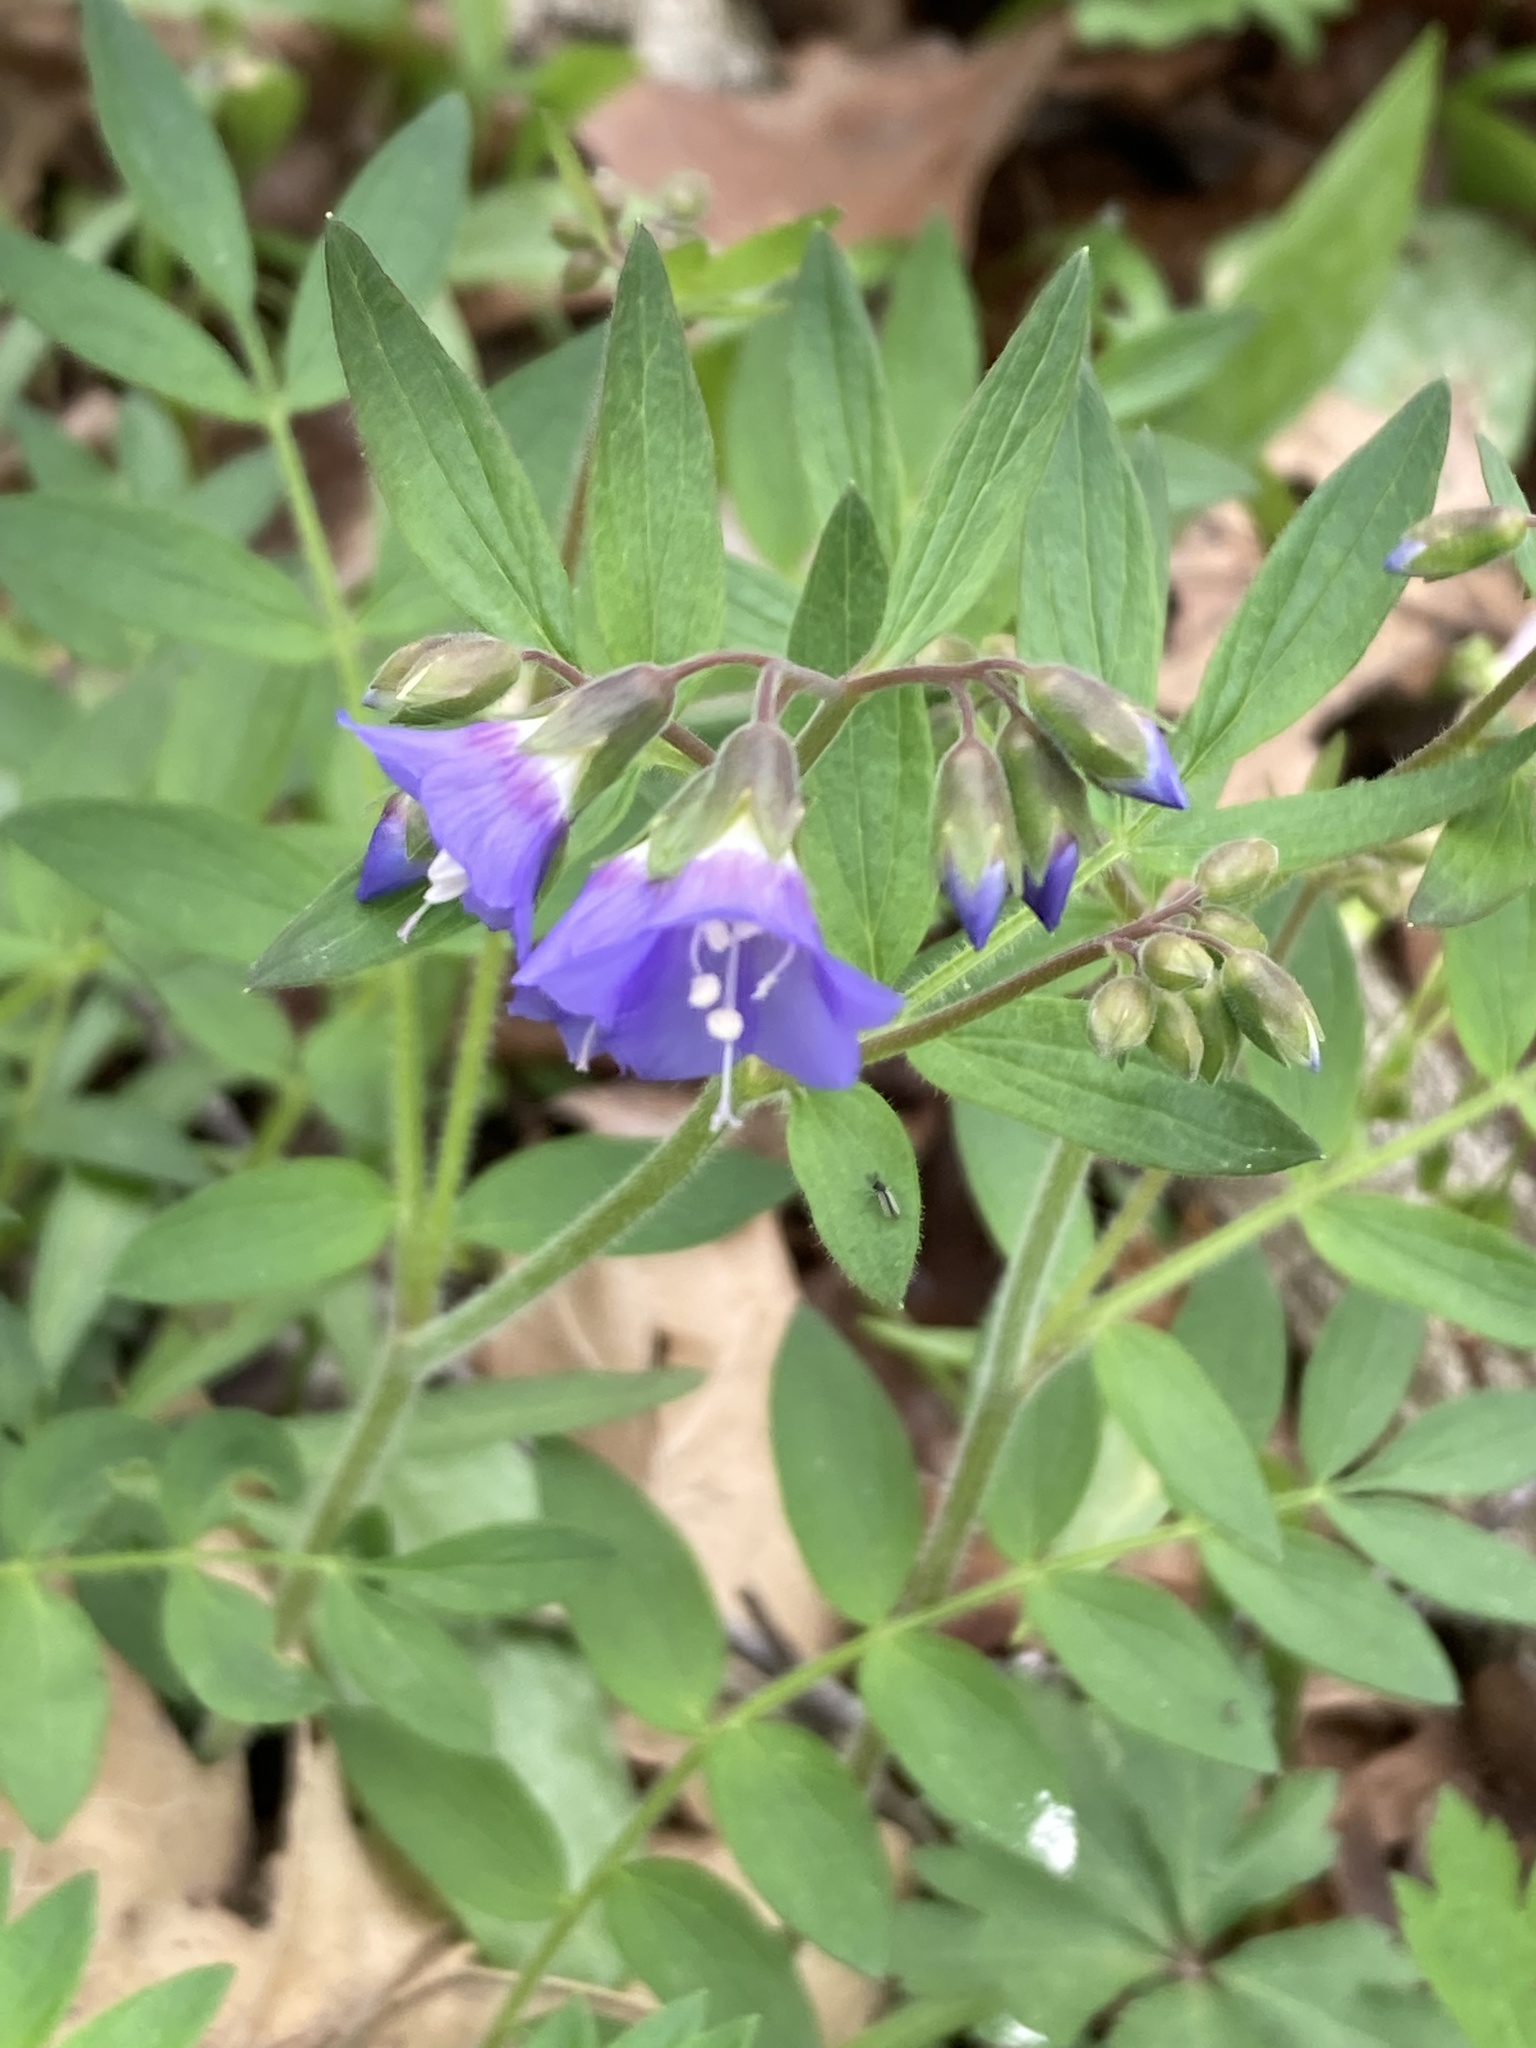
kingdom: Plantae
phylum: Tracheophyta
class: Magnoliopsida
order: Ericales
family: Polemoniaceae
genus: Polemonium
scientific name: Polemonium reptans
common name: Creeping jacob's-ladder
